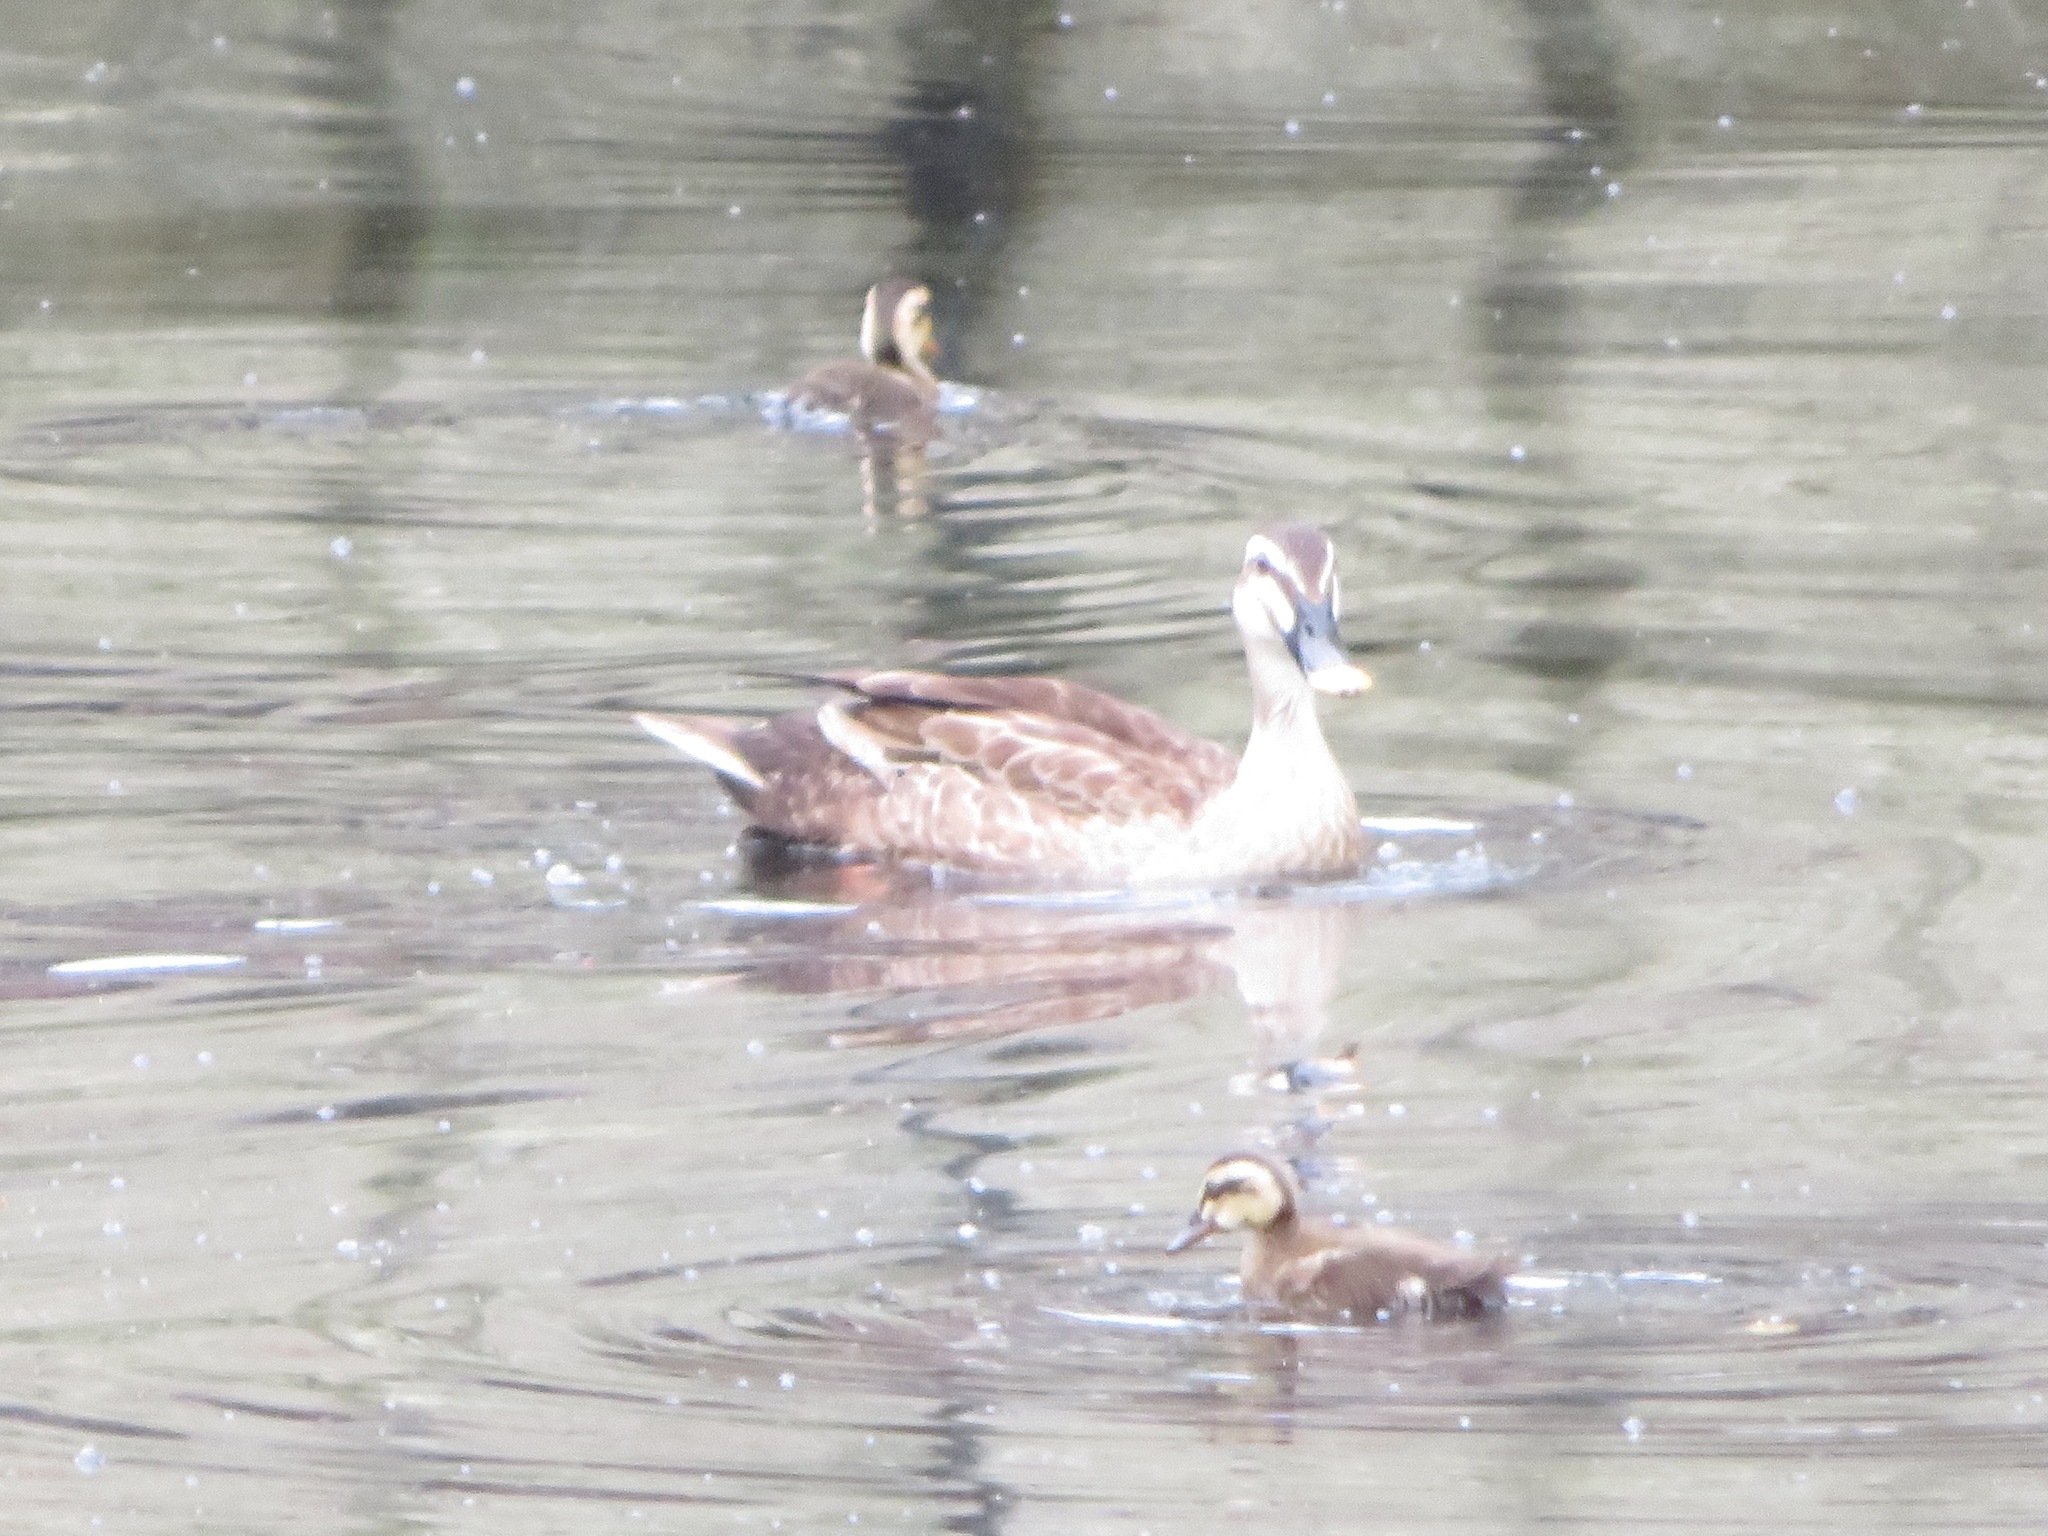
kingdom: Animalia
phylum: Chordata
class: Aves
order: Anseriformes
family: Anatidae
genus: Anas
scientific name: Anas zonorhyncha
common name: Eastern spot-billed duck
